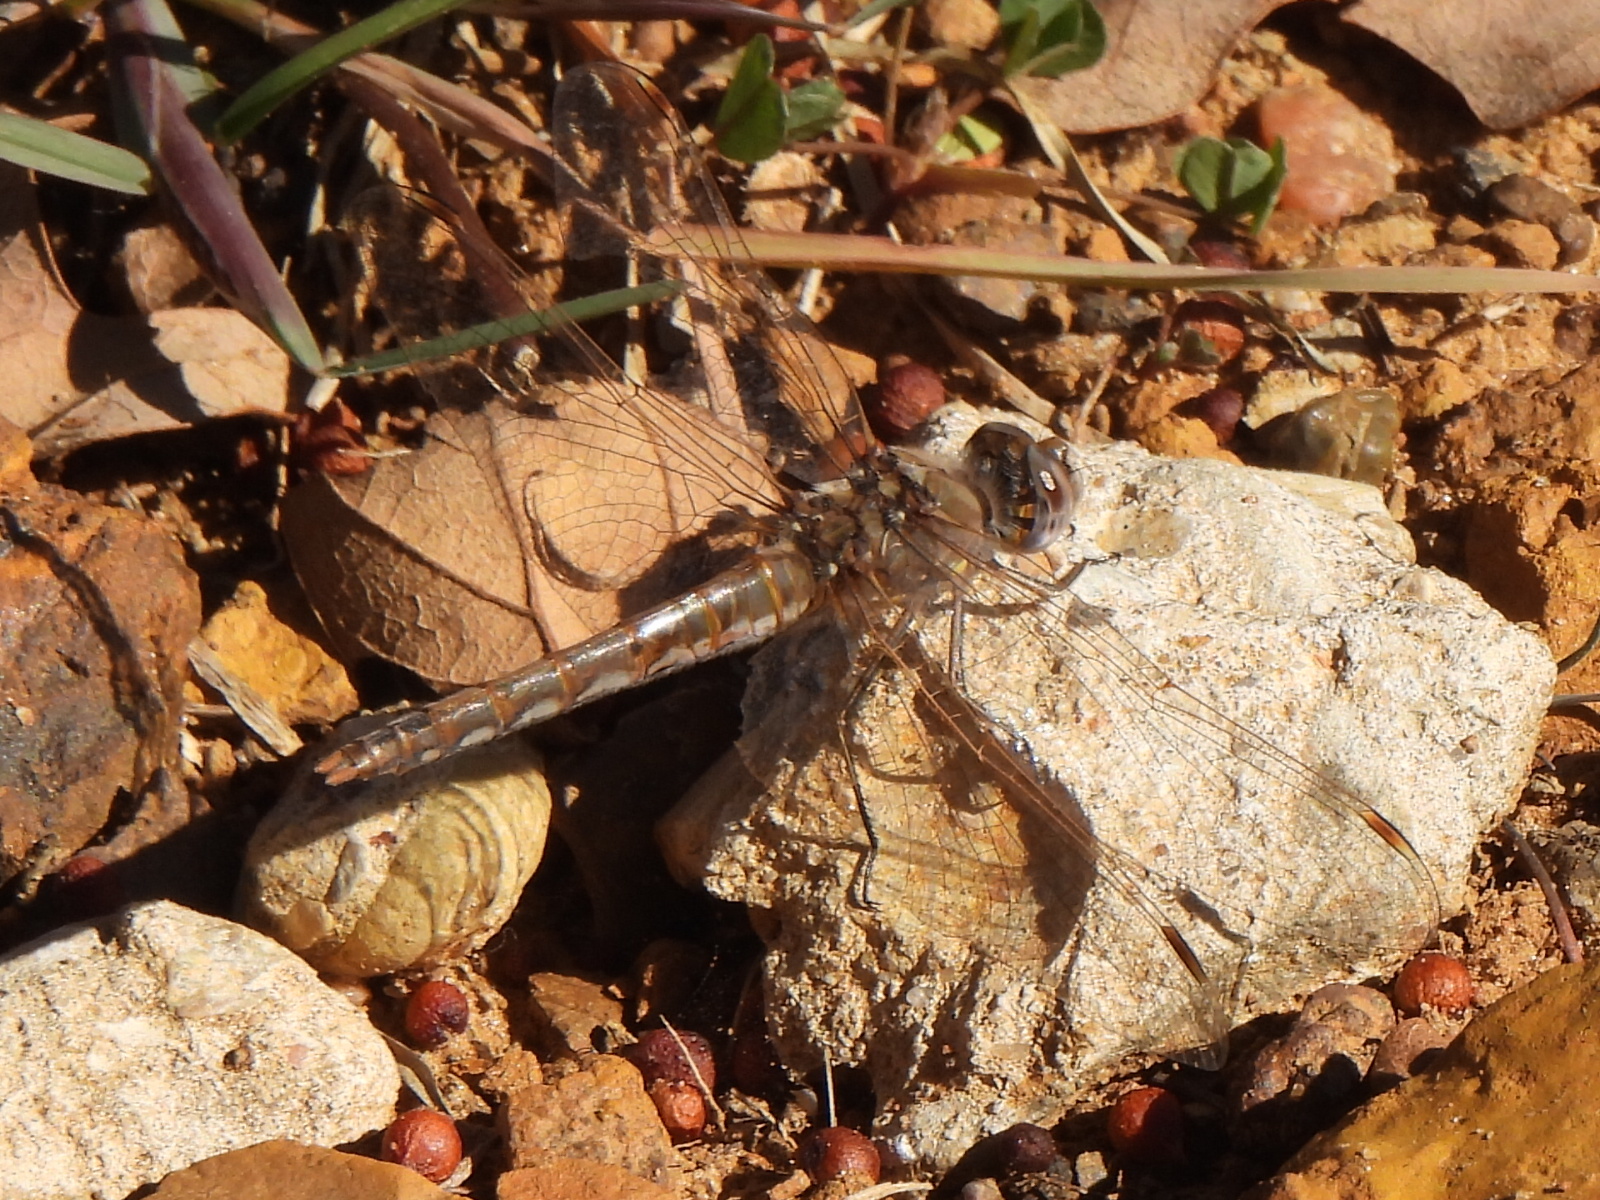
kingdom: Animalia
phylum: Arthropoda
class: Insecta
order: Odonata
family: Libellulidae
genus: Sympetrum
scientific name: Sympetrum corruptum
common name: Variegated meadowhawk
